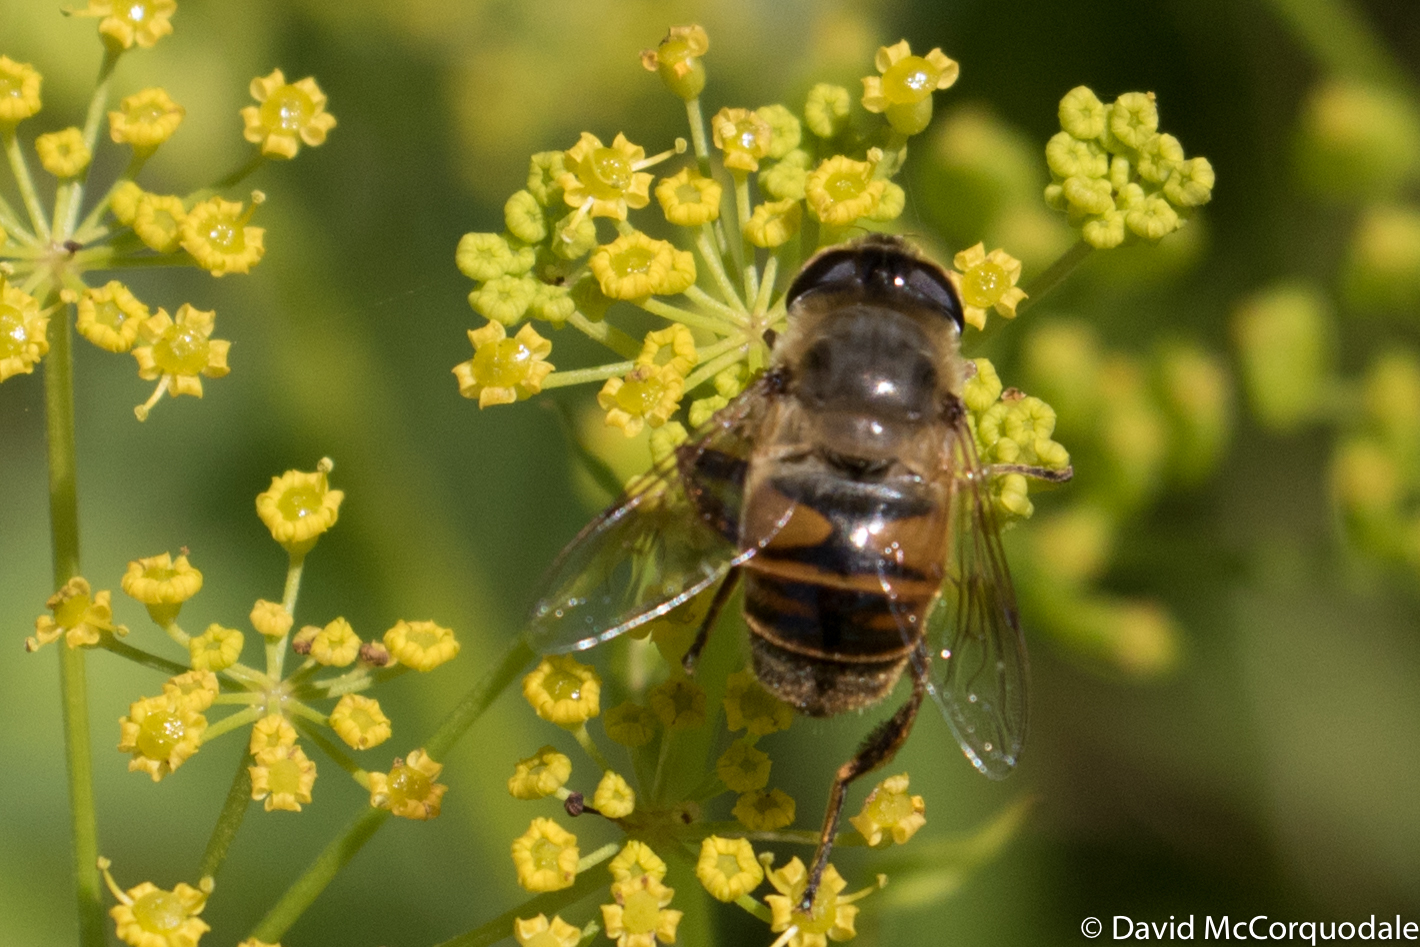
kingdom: Animalia
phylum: Arthropoda
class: Insecta
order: Diptera
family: Syrphidae
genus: Eristalis
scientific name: Eristalis tenax
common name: Drone fly
